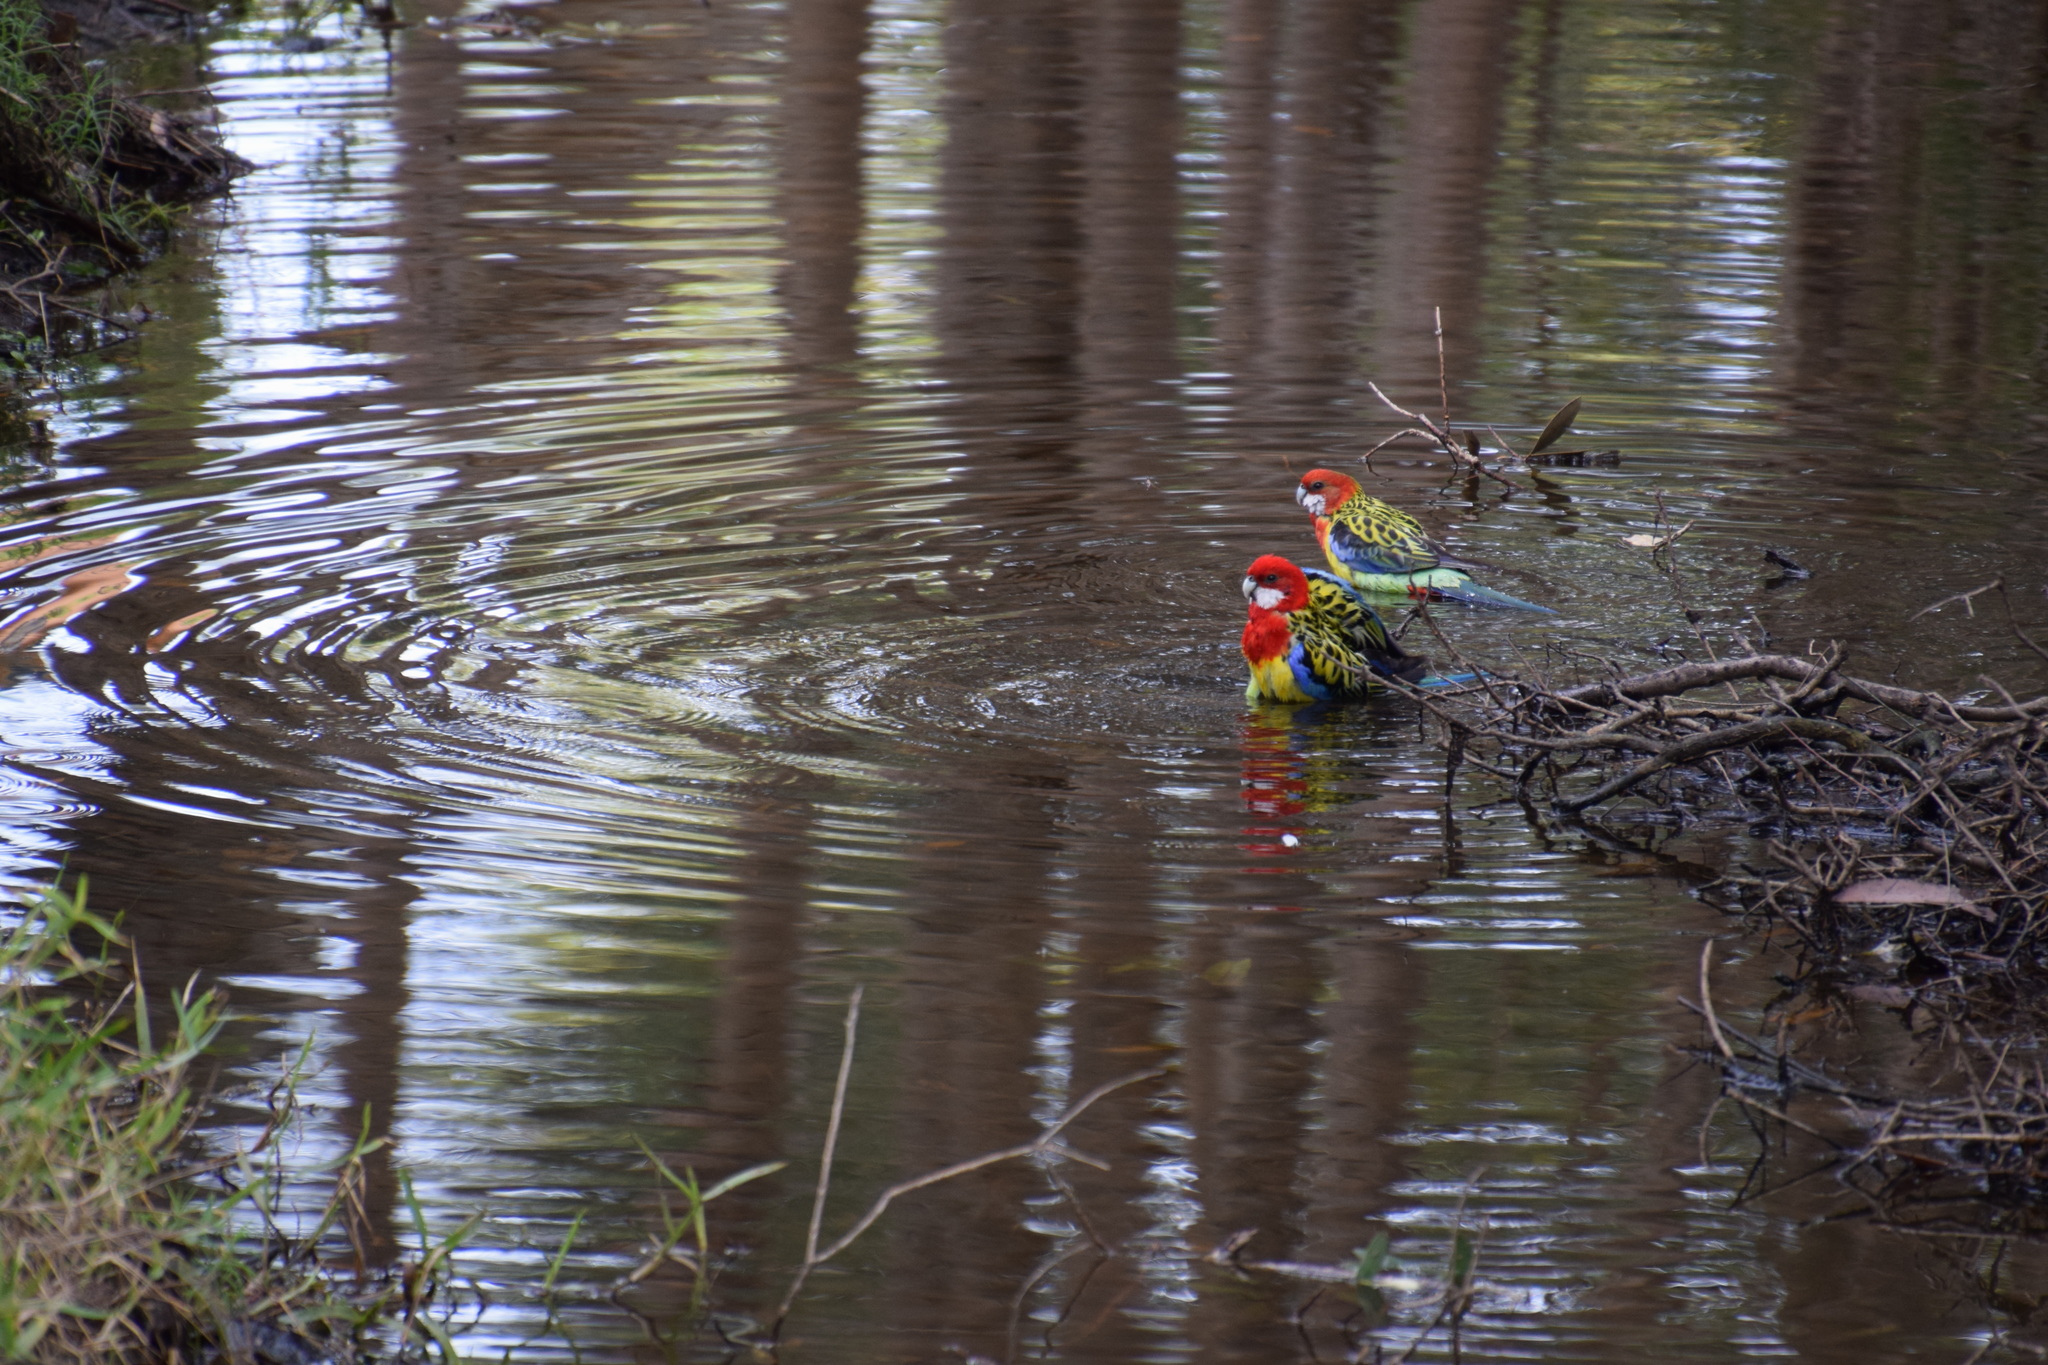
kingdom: Animalia
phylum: Chordata
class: Aves
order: Psittaciformes
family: Psittacidae
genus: Platycercus
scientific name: Platycercus eximius
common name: Eastern rosella
